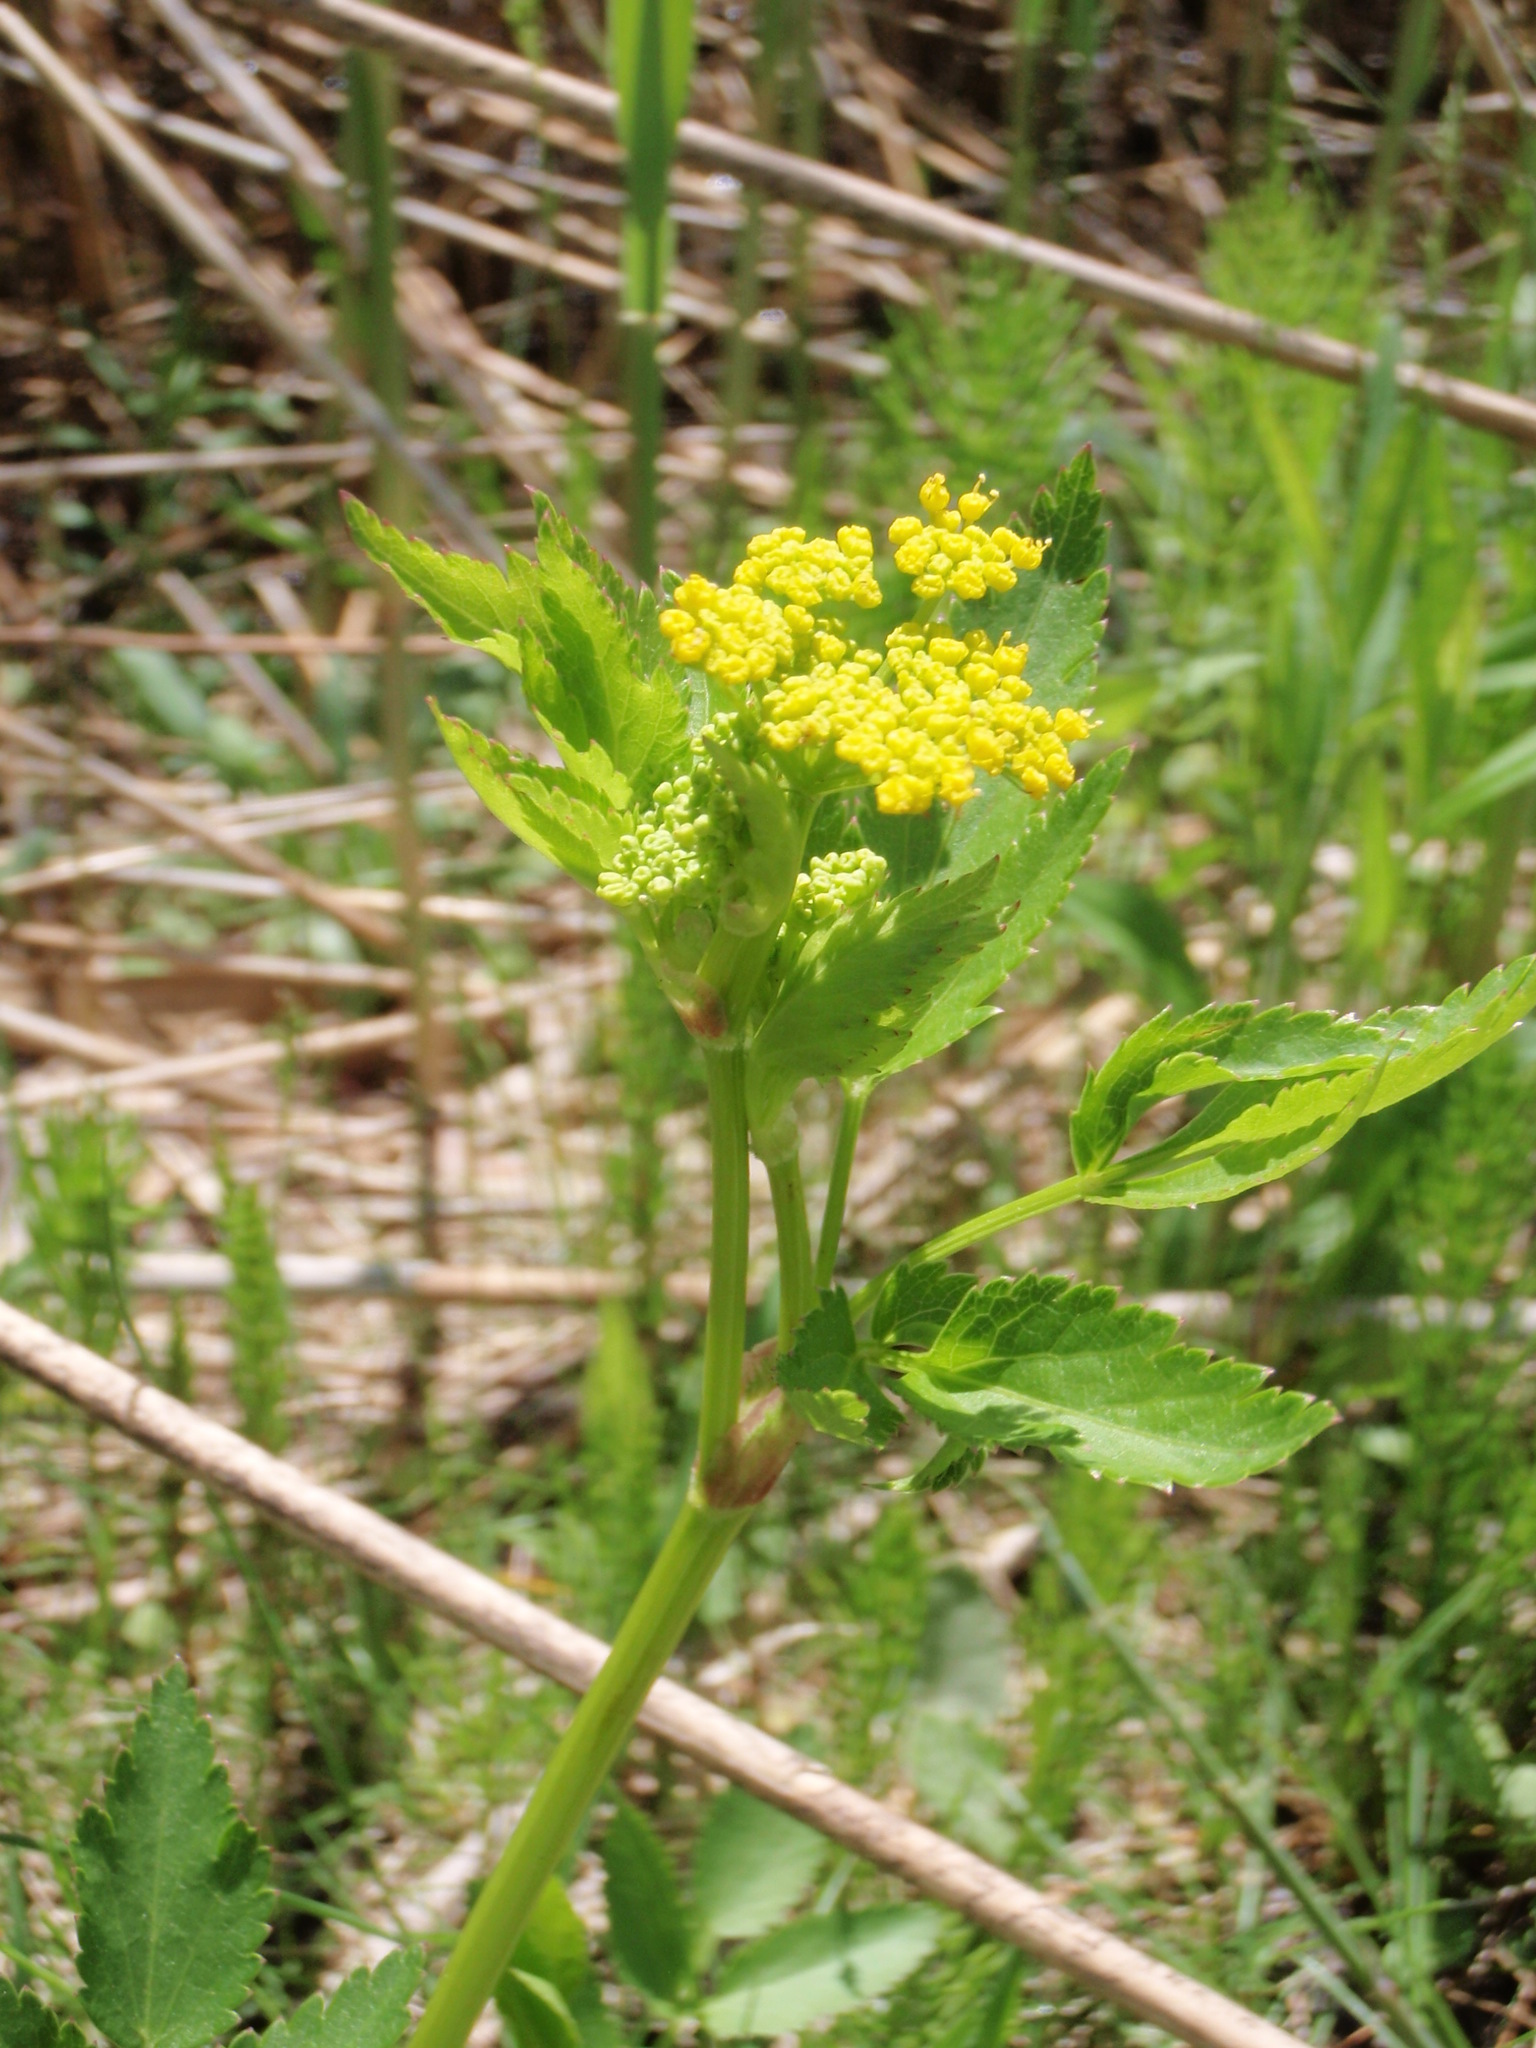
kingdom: Plantae
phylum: Tracheophyta
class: Magnoliopsida
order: Apiales
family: Apiaceae
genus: Zizia
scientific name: Zizia aurea
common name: Golden alexanders
